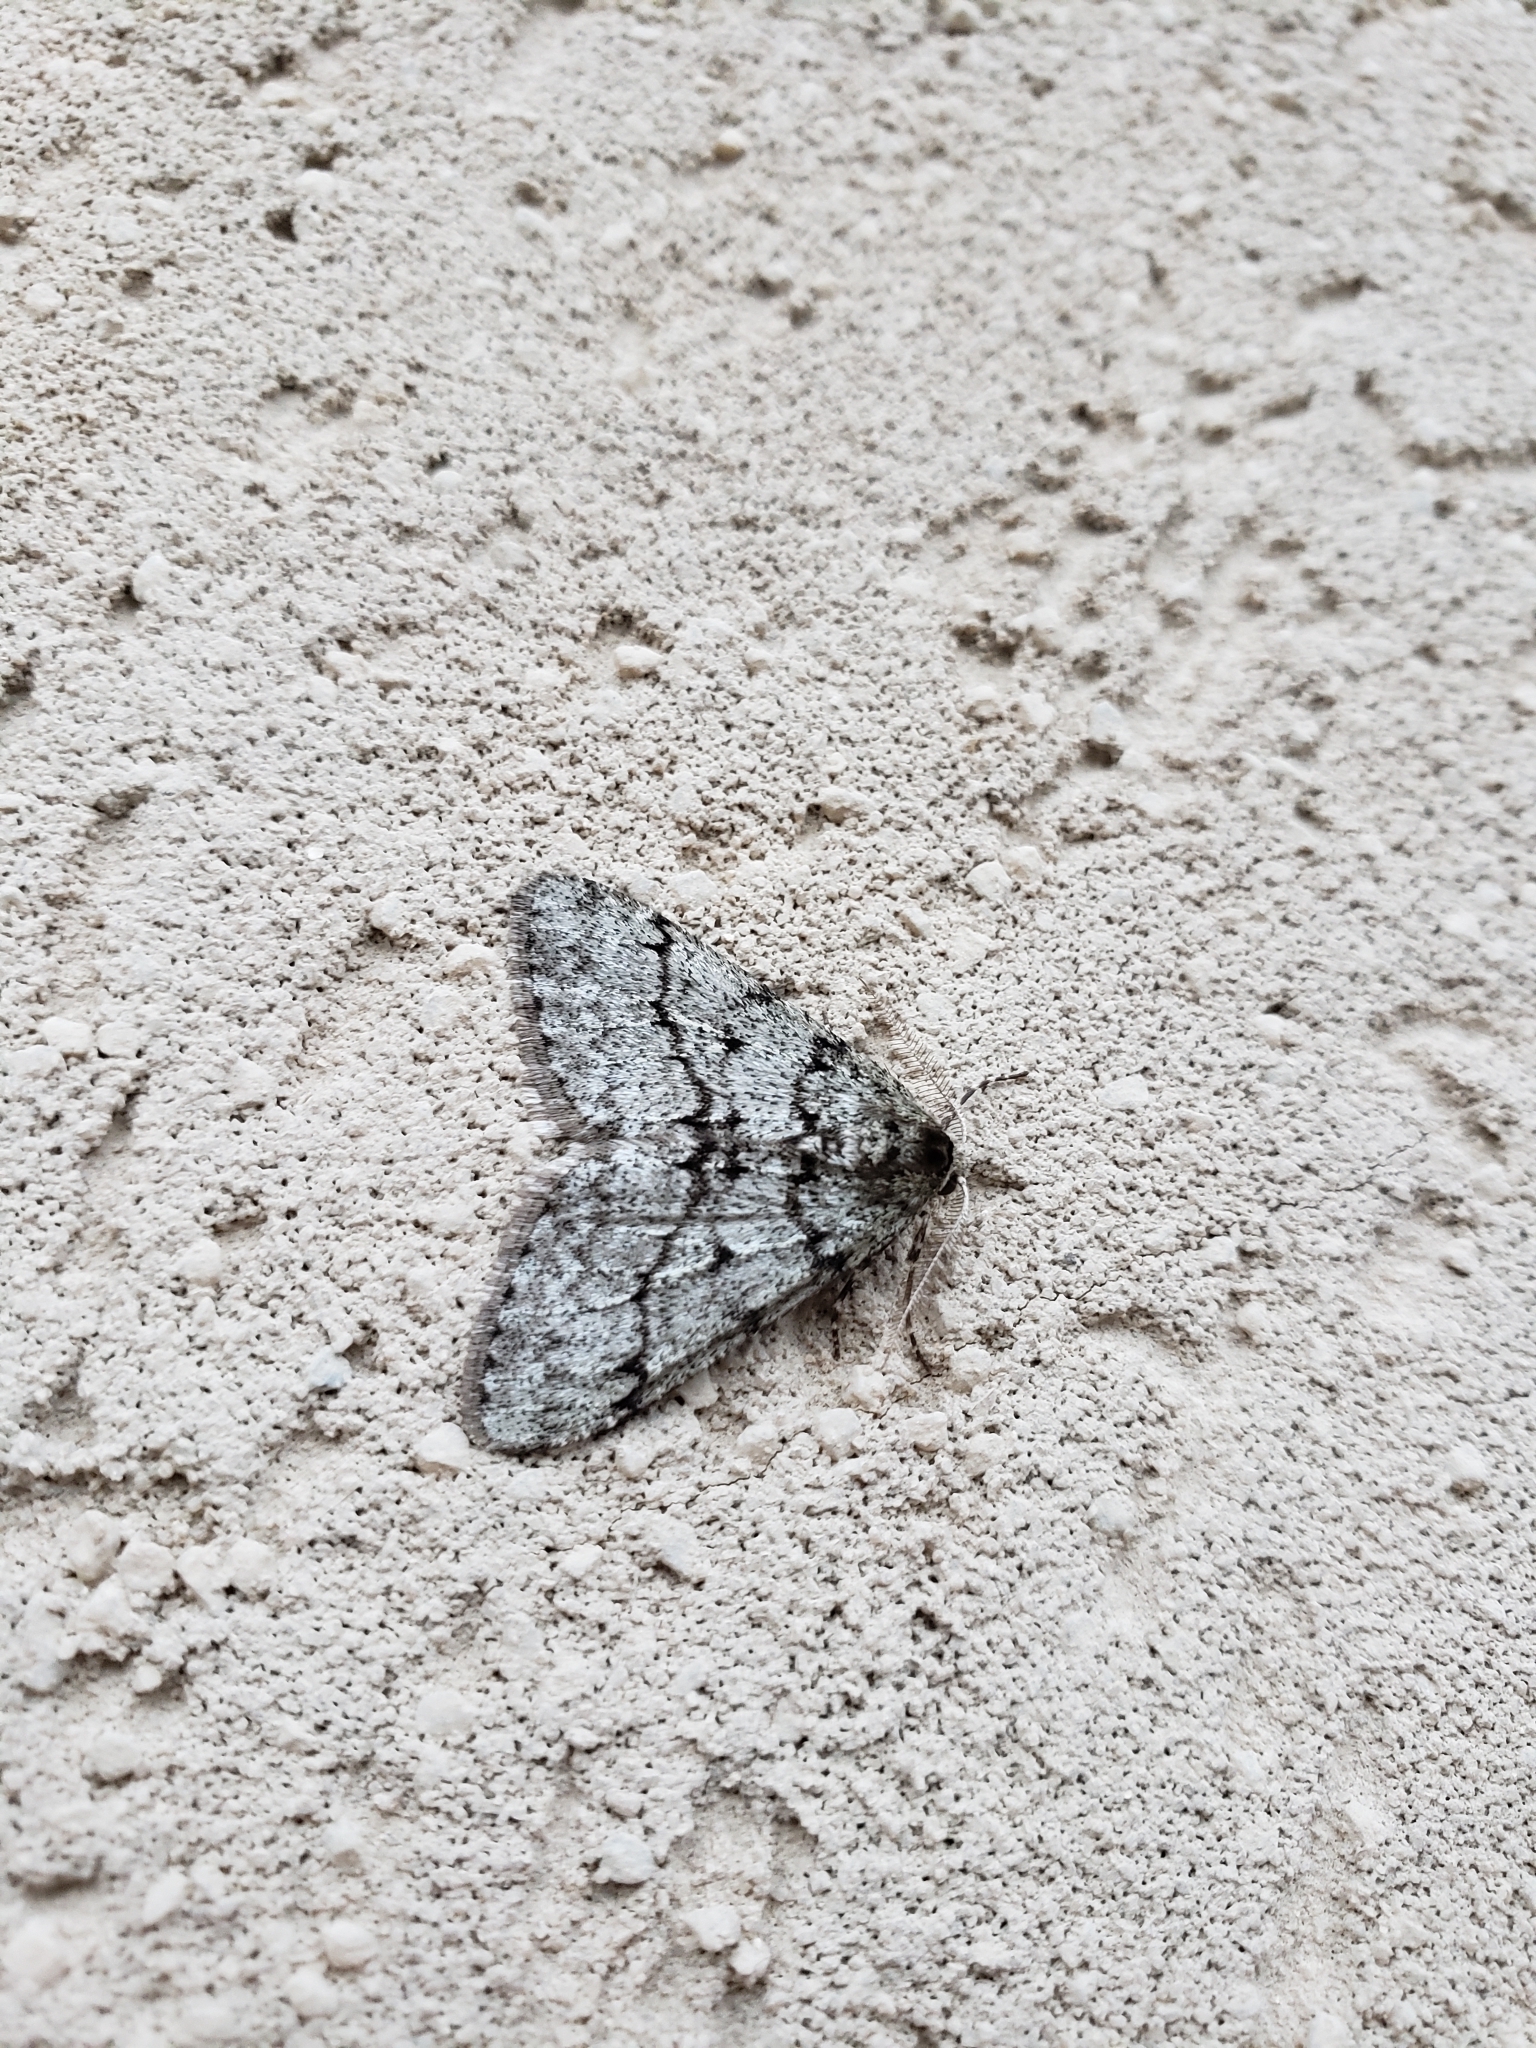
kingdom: Animalia
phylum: Arthropoda
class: Insecta
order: Lepidoptera
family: Geometridae
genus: Phigalia
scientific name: Phigalia strigataria
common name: Small phigalia
